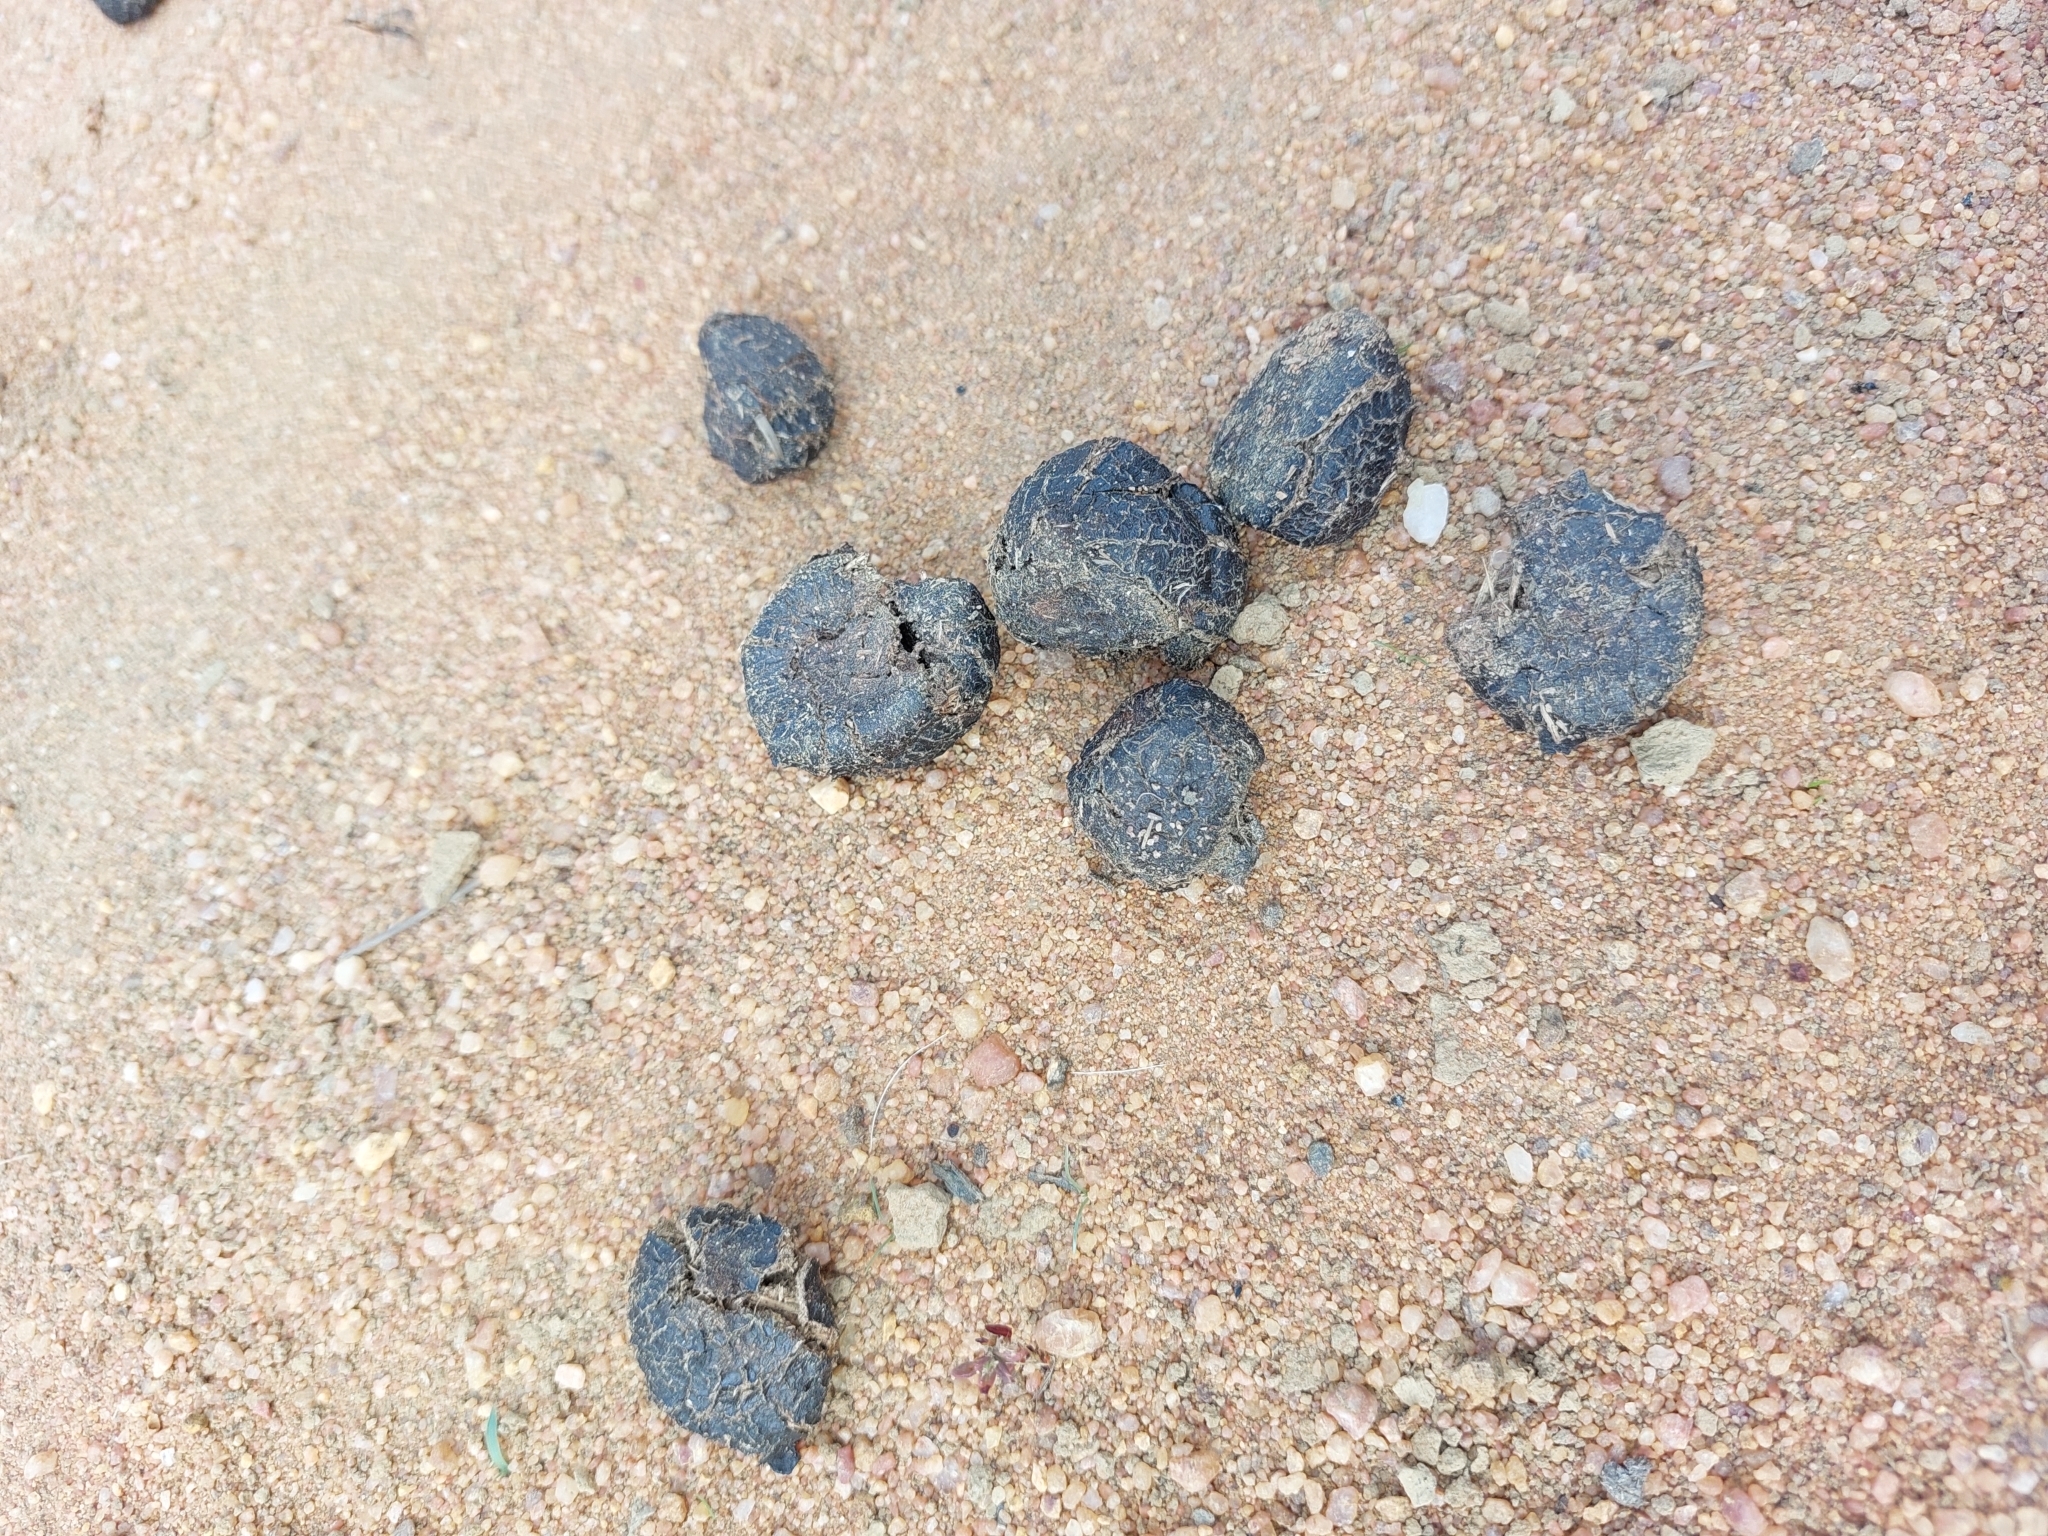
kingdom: Animalia
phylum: Chordata
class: Mammalia
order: Artiodactyla
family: Giraffidae
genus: Giraffa
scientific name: Giraffa giraffa
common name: Southern giraffe
